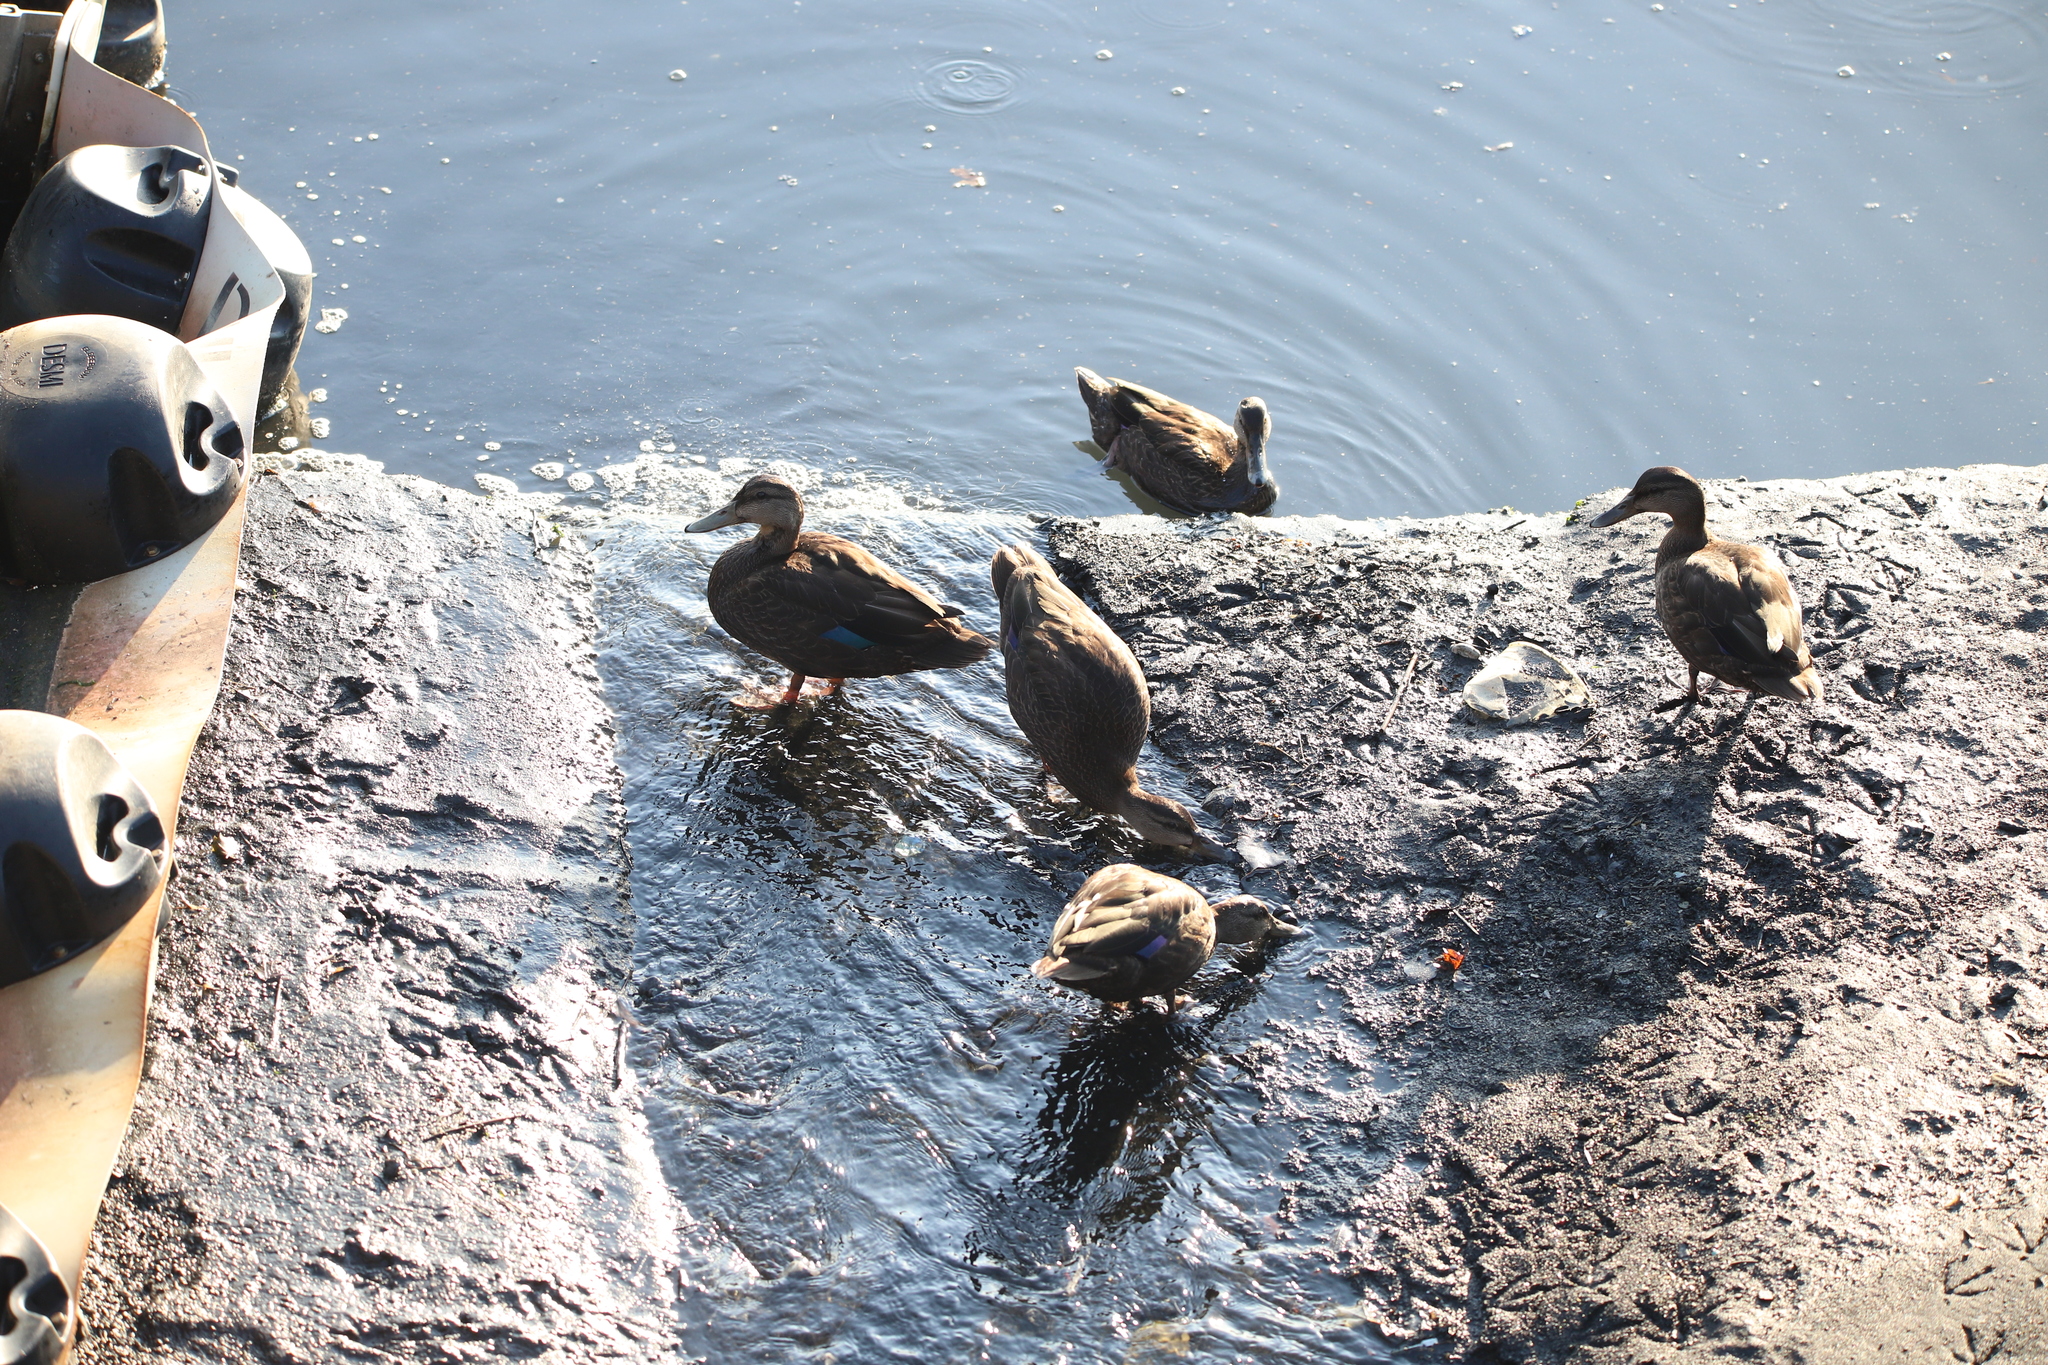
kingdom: Animalia
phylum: Chordata
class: Aves
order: Anseriformes
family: Anatidae
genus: Anas
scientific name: Anas rubripes
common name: American black duck
